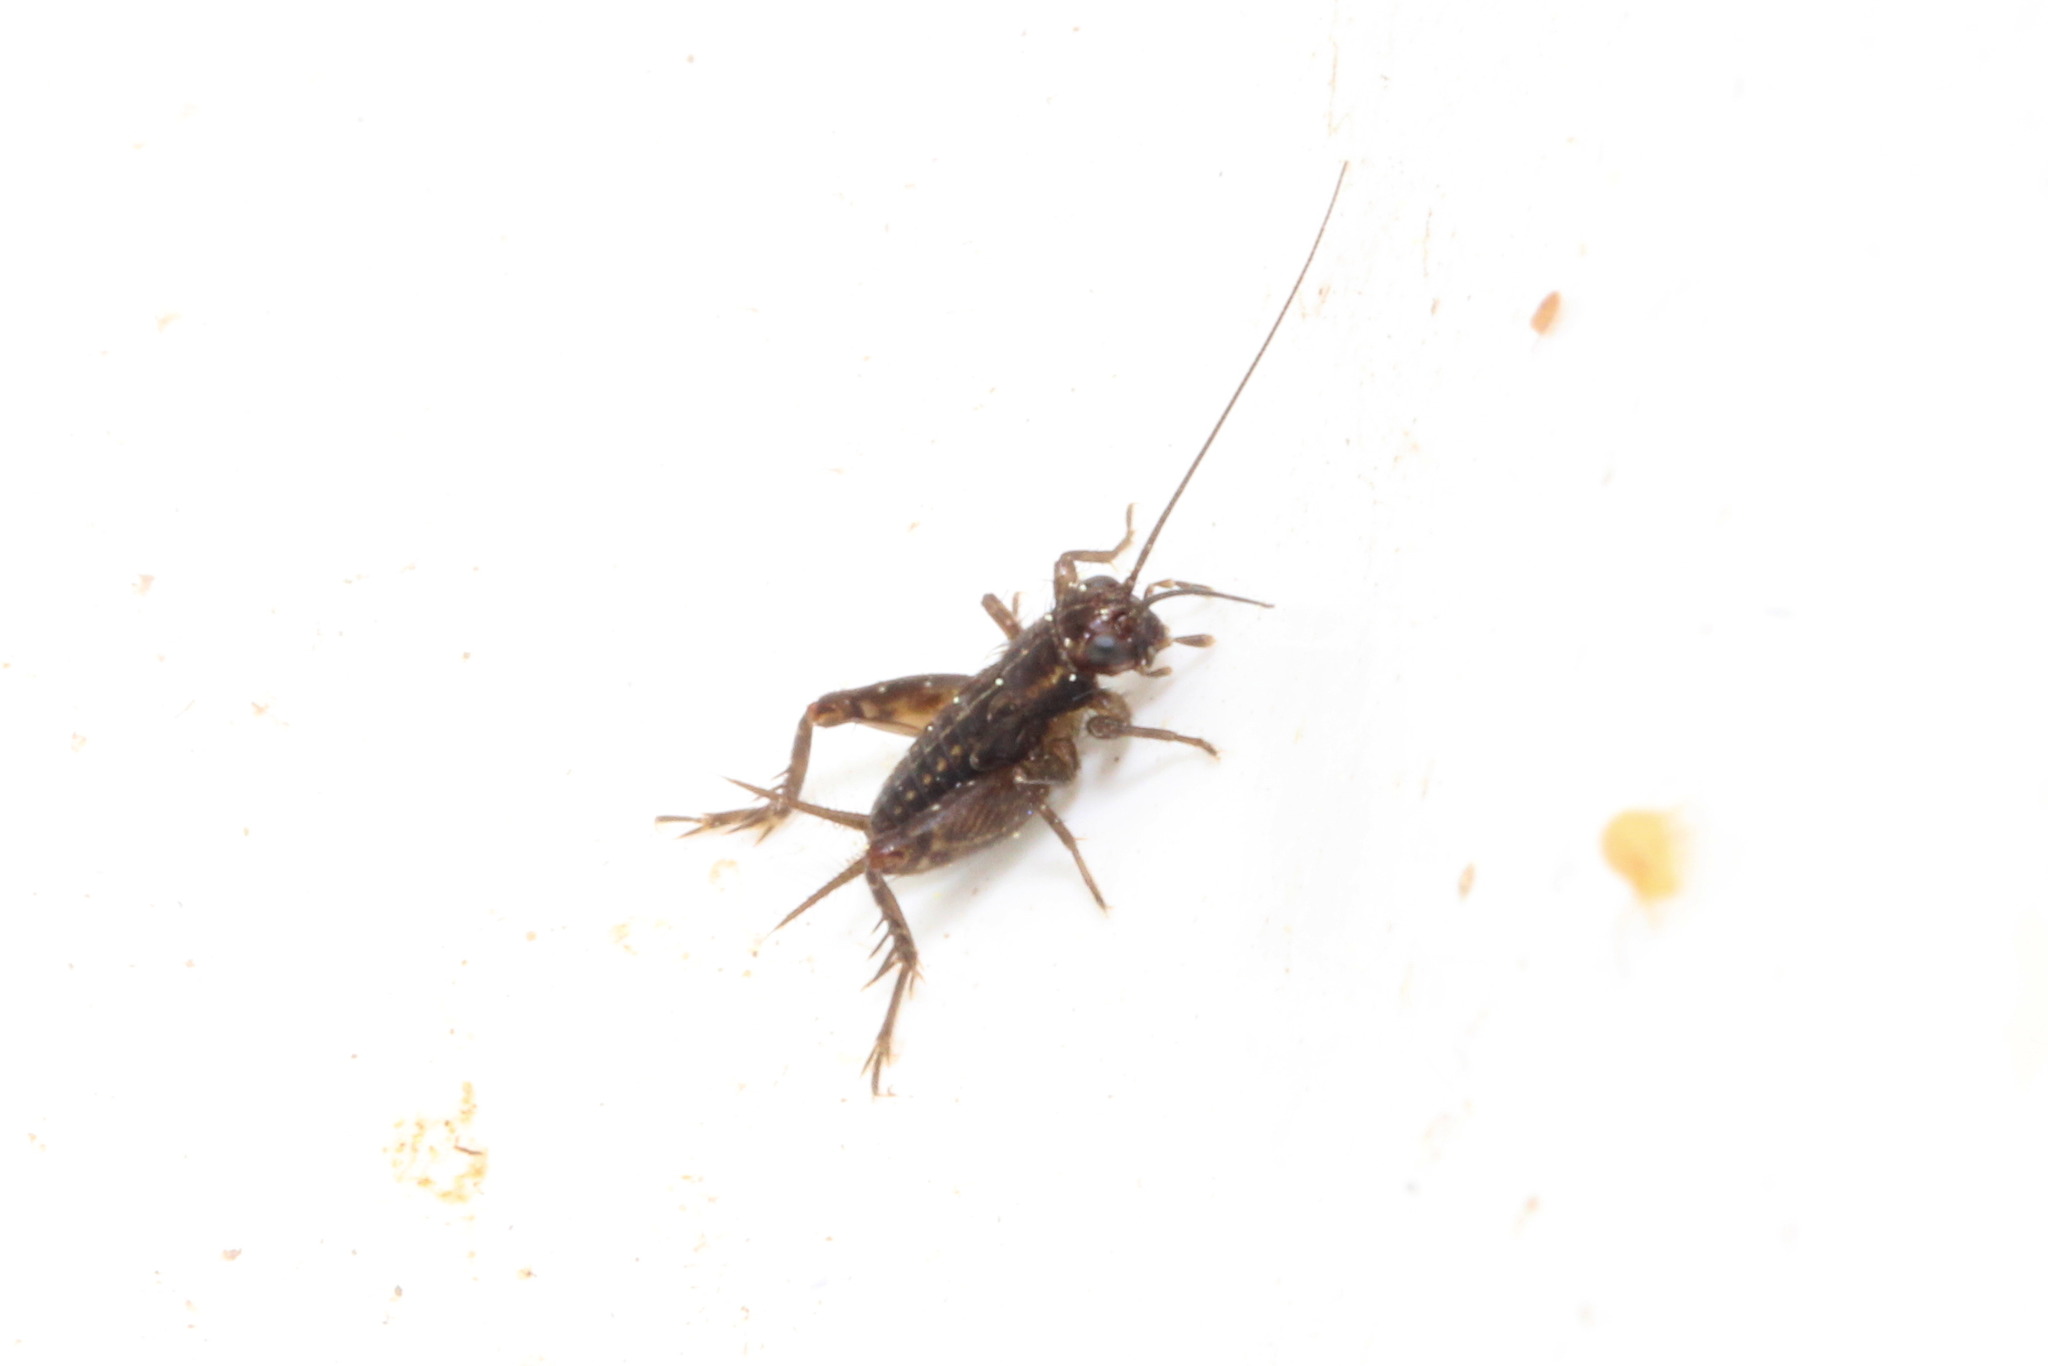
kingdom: Animalia
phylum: Arthropoda
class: Insecta
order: Orthoptera
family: Trigonidiidae
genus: Pteronemobius
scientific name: Pteronemobius heydenii
